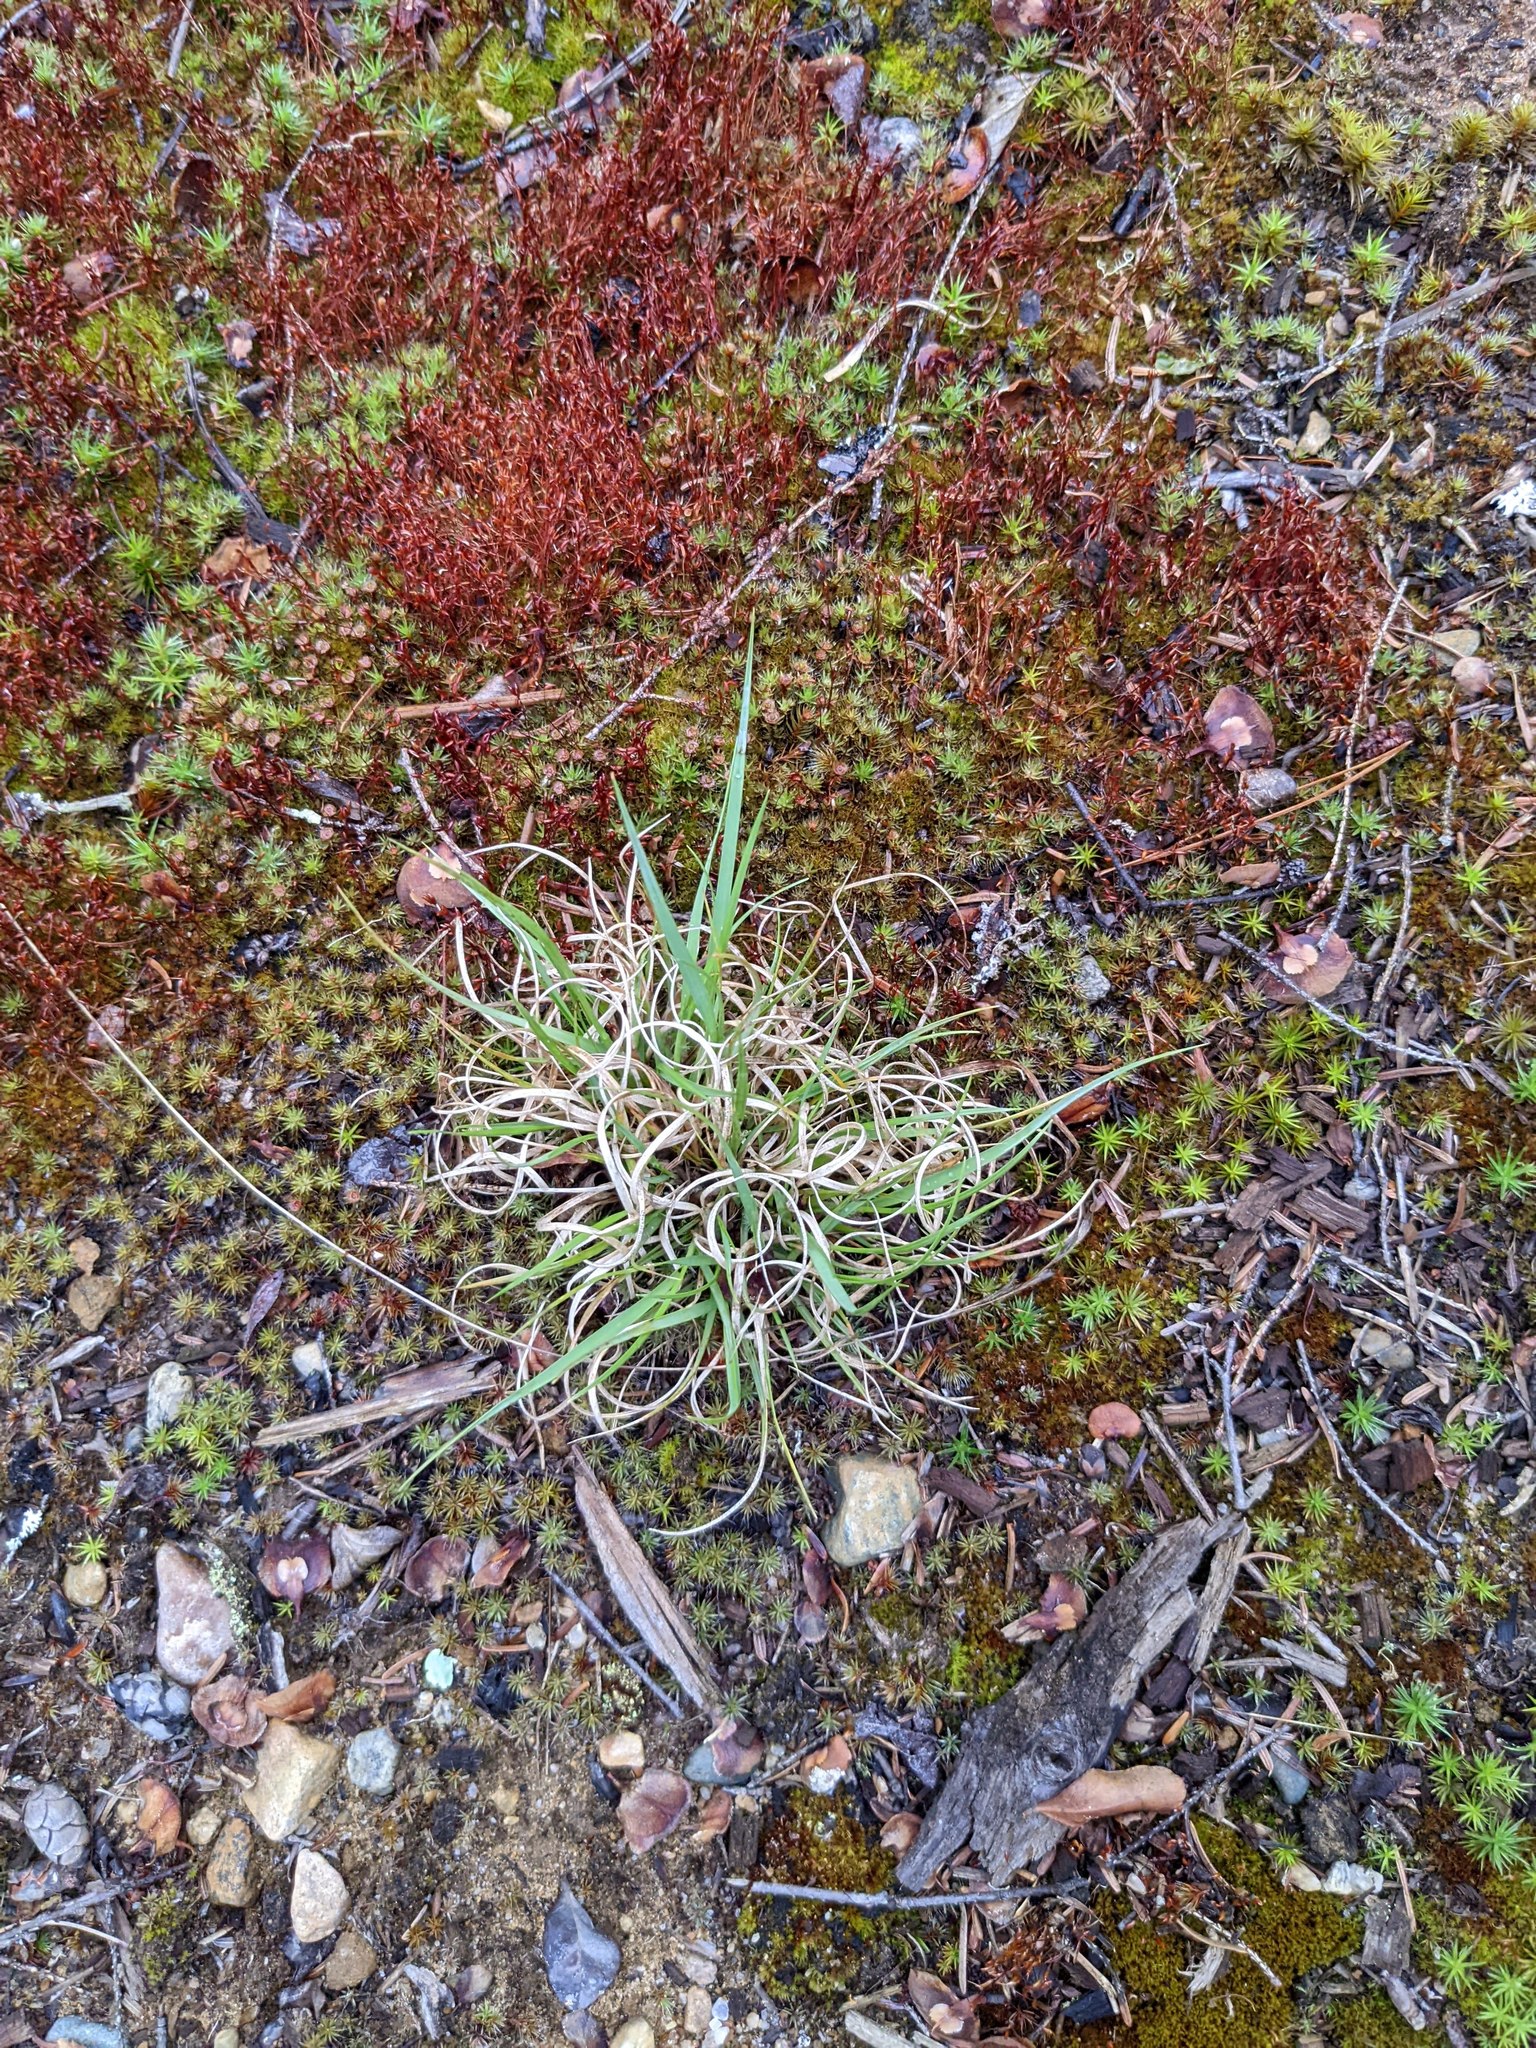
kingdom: Plantae
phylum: Tracheophyta
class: Liliopsida
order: Poales
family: Poaceae
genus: Danthonia
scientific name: Danthonia spicata
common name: Common wild oatgrass
